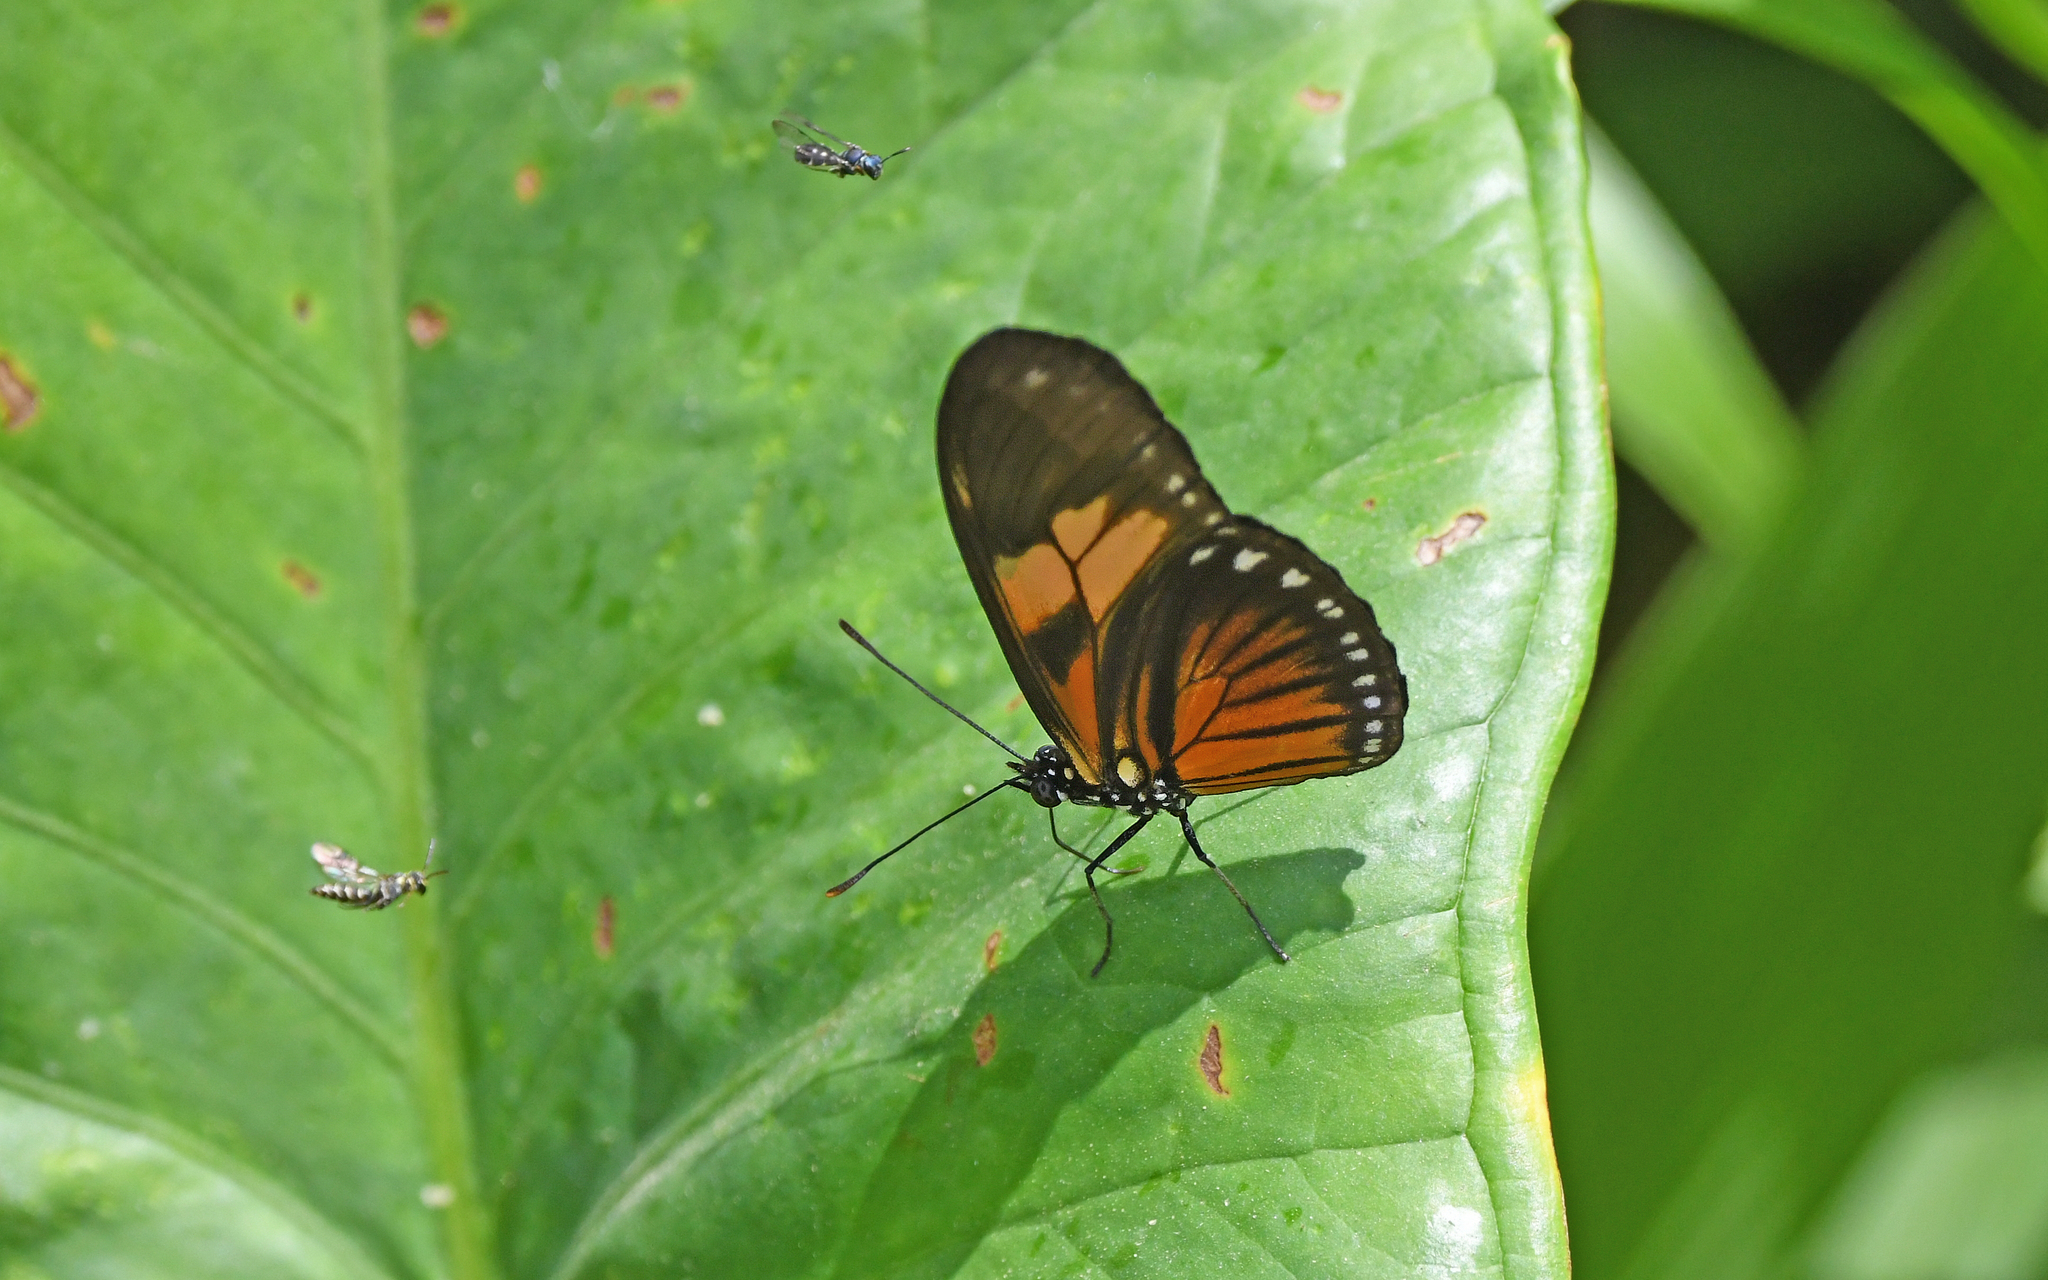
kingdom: Animalia
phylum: Arthropoda
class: Insecta
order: Lepidoptera
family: Nymphalidae
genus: Eueides
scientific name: Eueides vibilia
